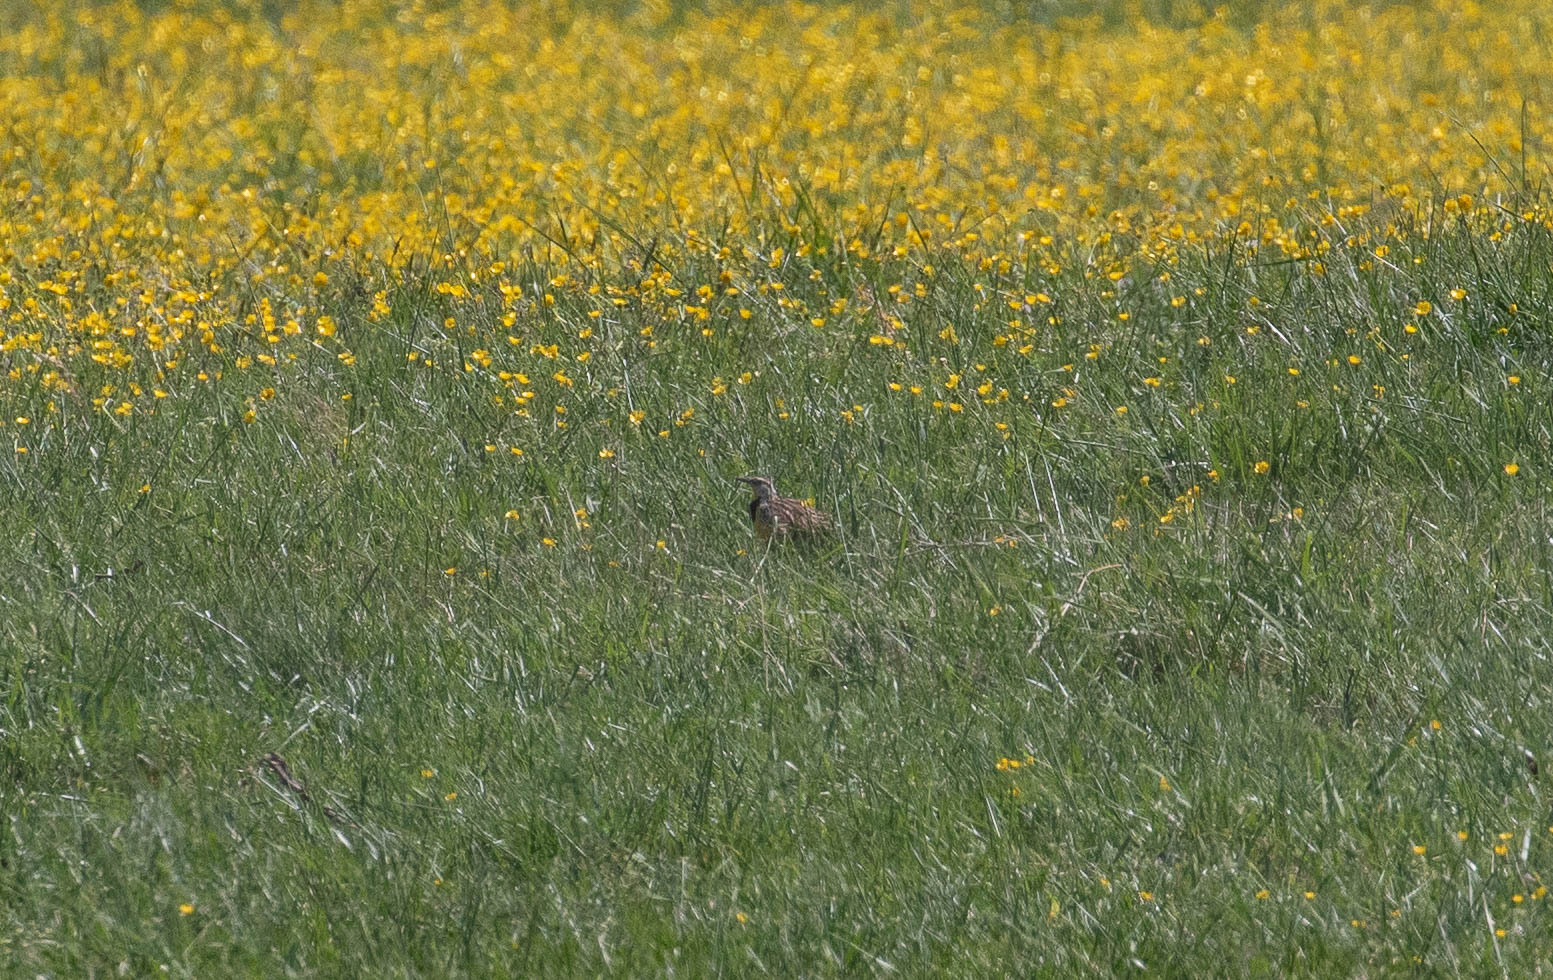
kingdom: Animalia
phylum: Chordata
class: Aves
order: Passeriformes
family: Icteridae
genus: Sturnella
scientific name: Sturnella magna
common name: Eastern meadowlark
